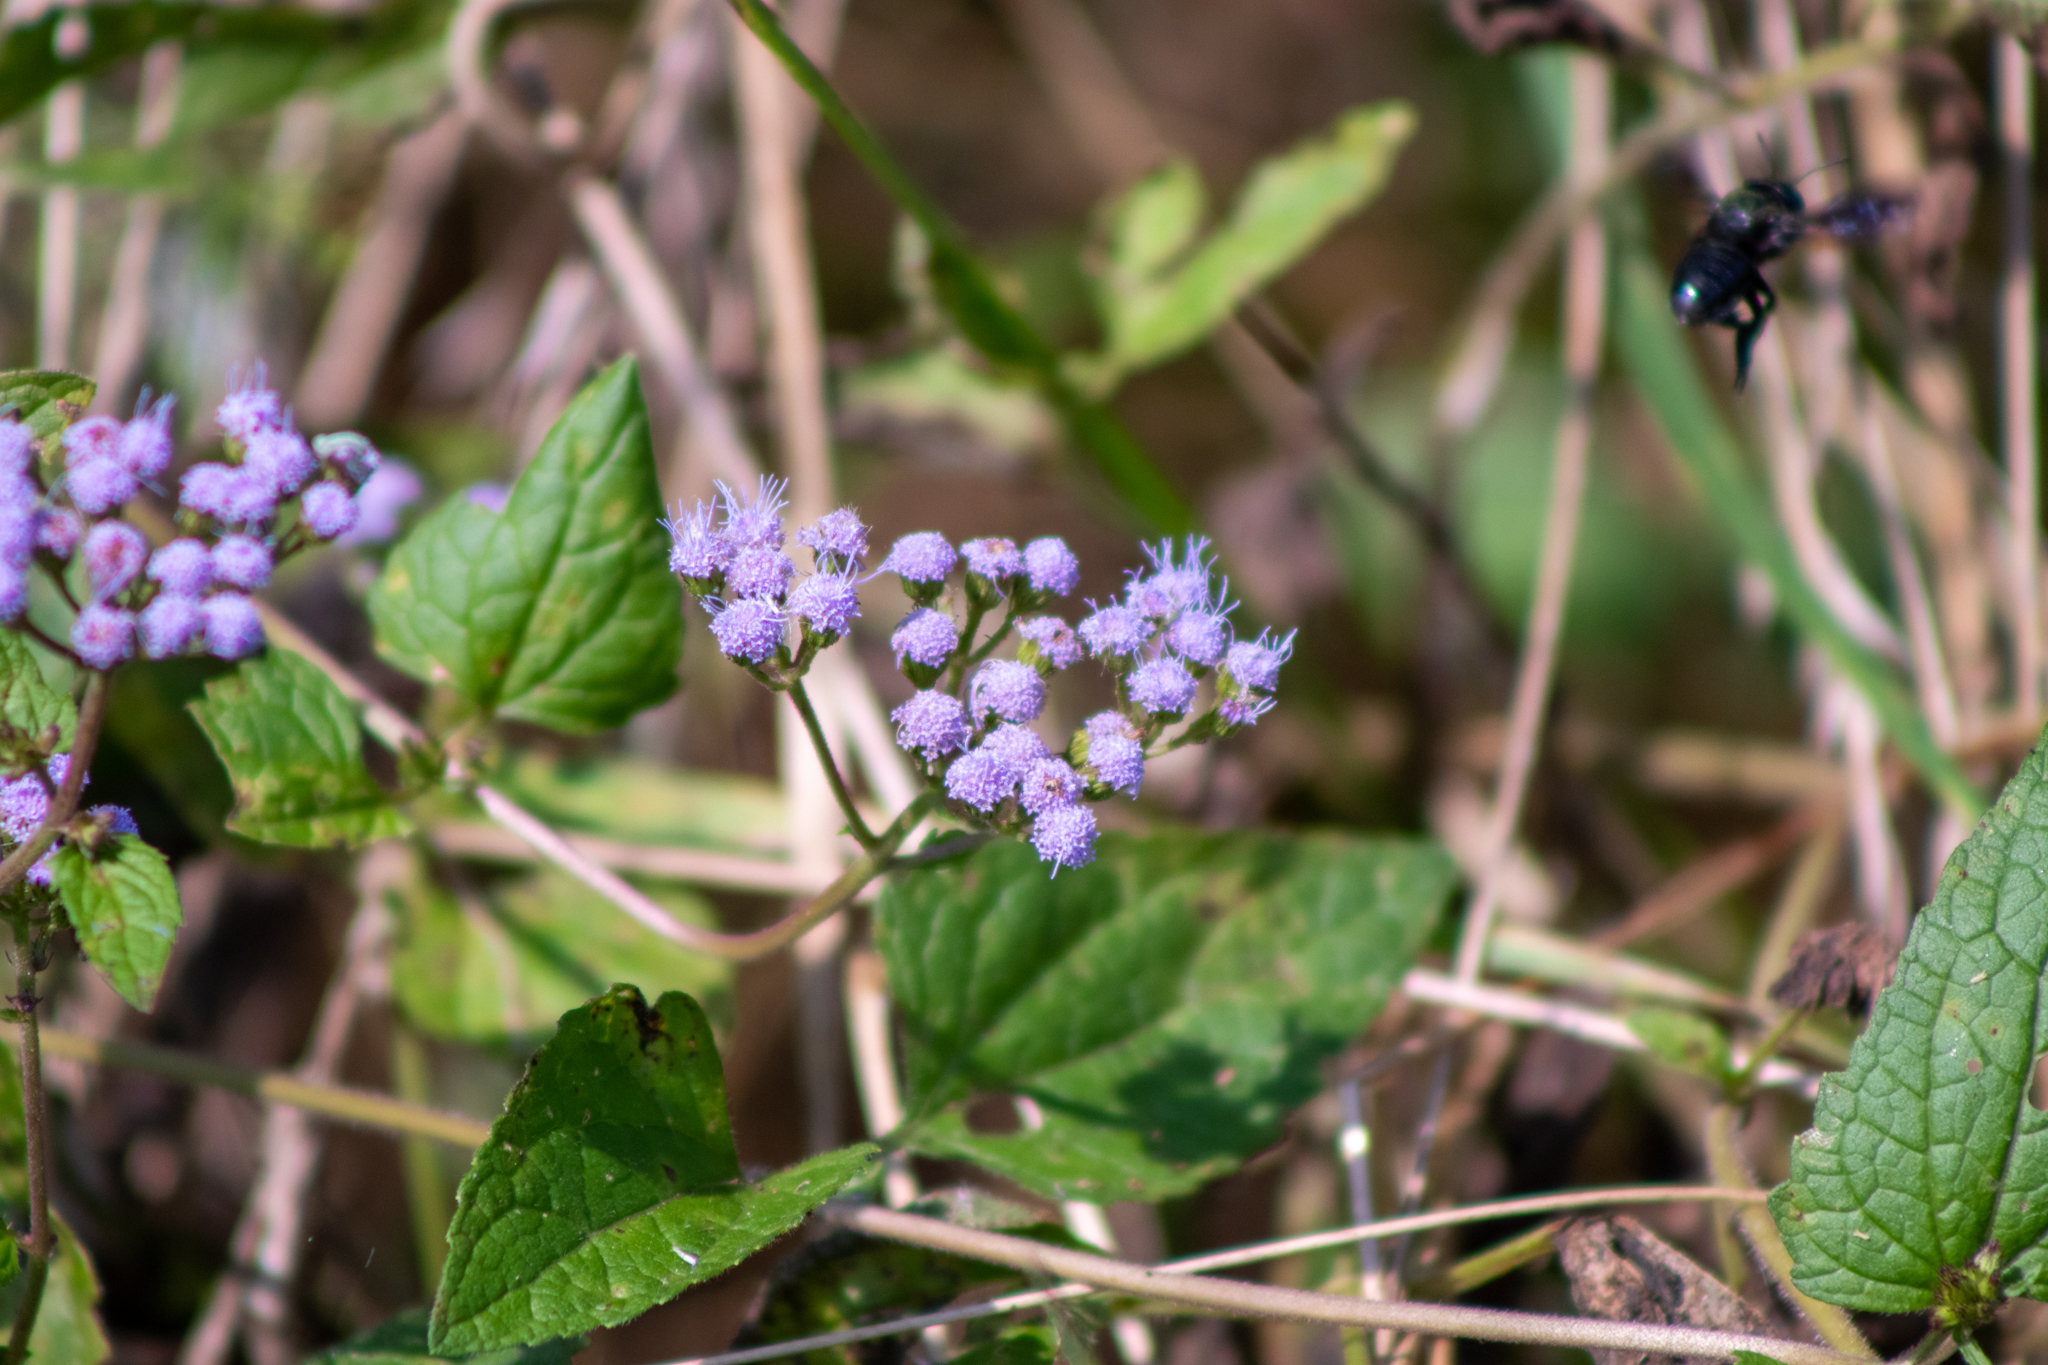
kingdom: Plantae
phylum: Tracheophyta
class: Magnoliopsida
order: Asterales
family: Asteraceae
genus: Conoclinium
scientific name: Conoclinium coelestinum
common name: Blue mistflower
